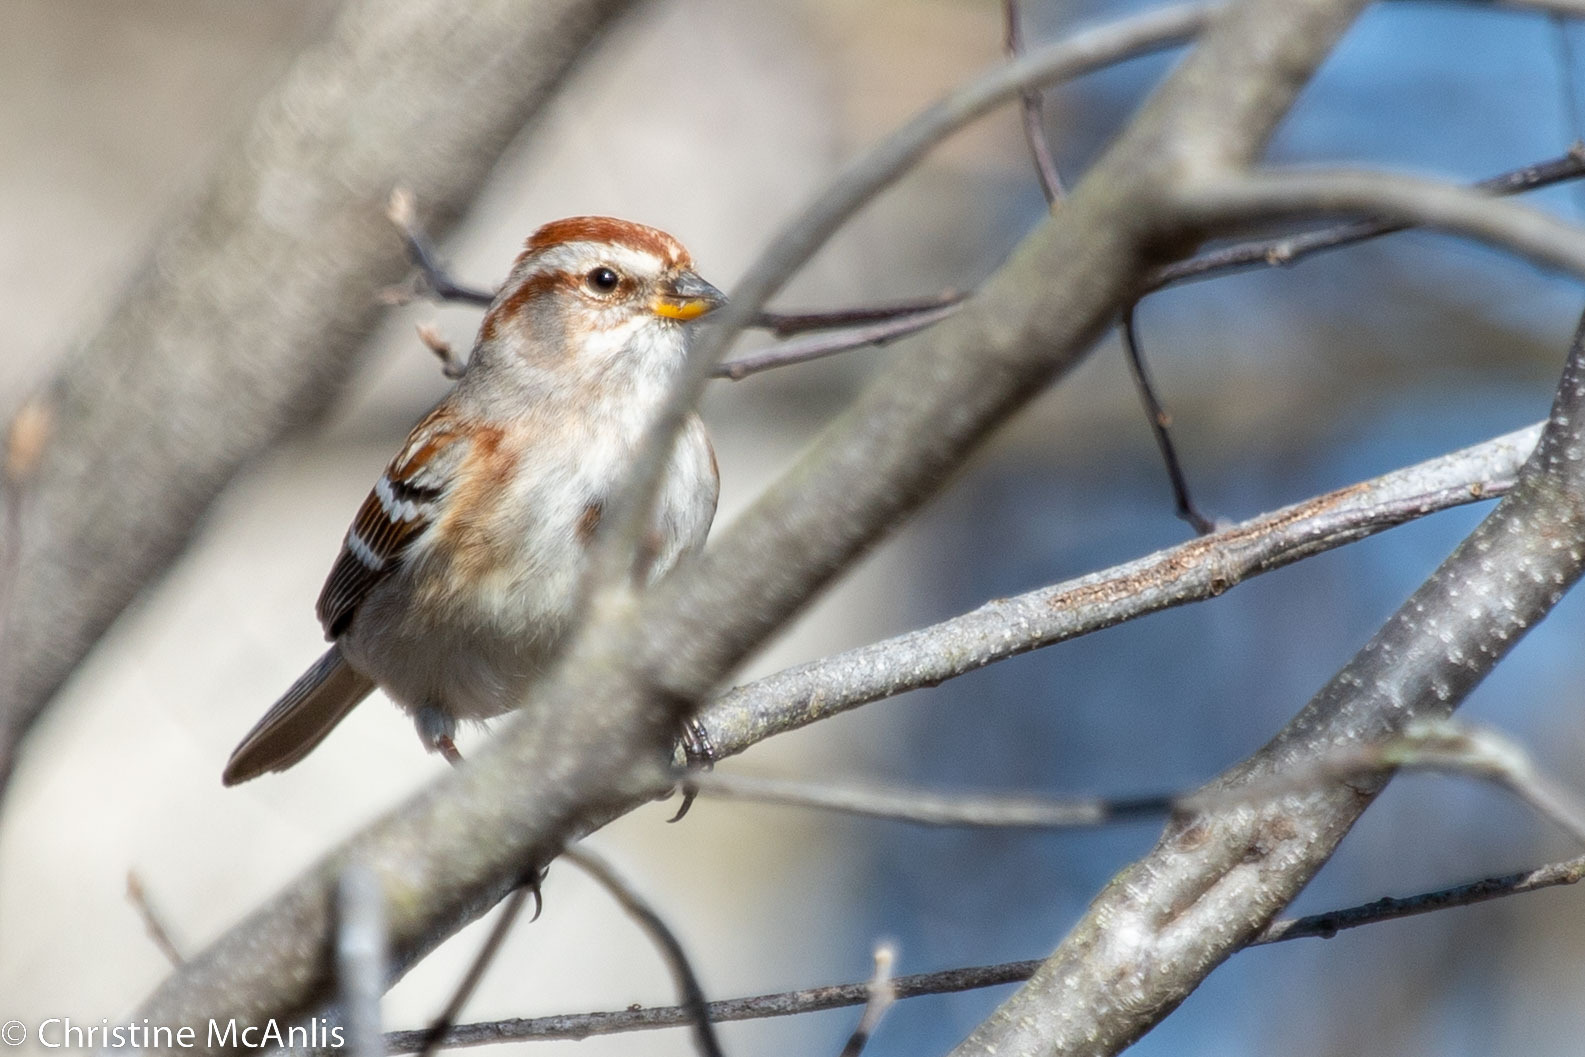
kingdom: Animalia
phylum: Chordata
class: Aves
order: Passeriformes
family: Passerellidae
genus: Spizelloides
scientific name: Spizelloides arborea
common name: American tree sparrow
